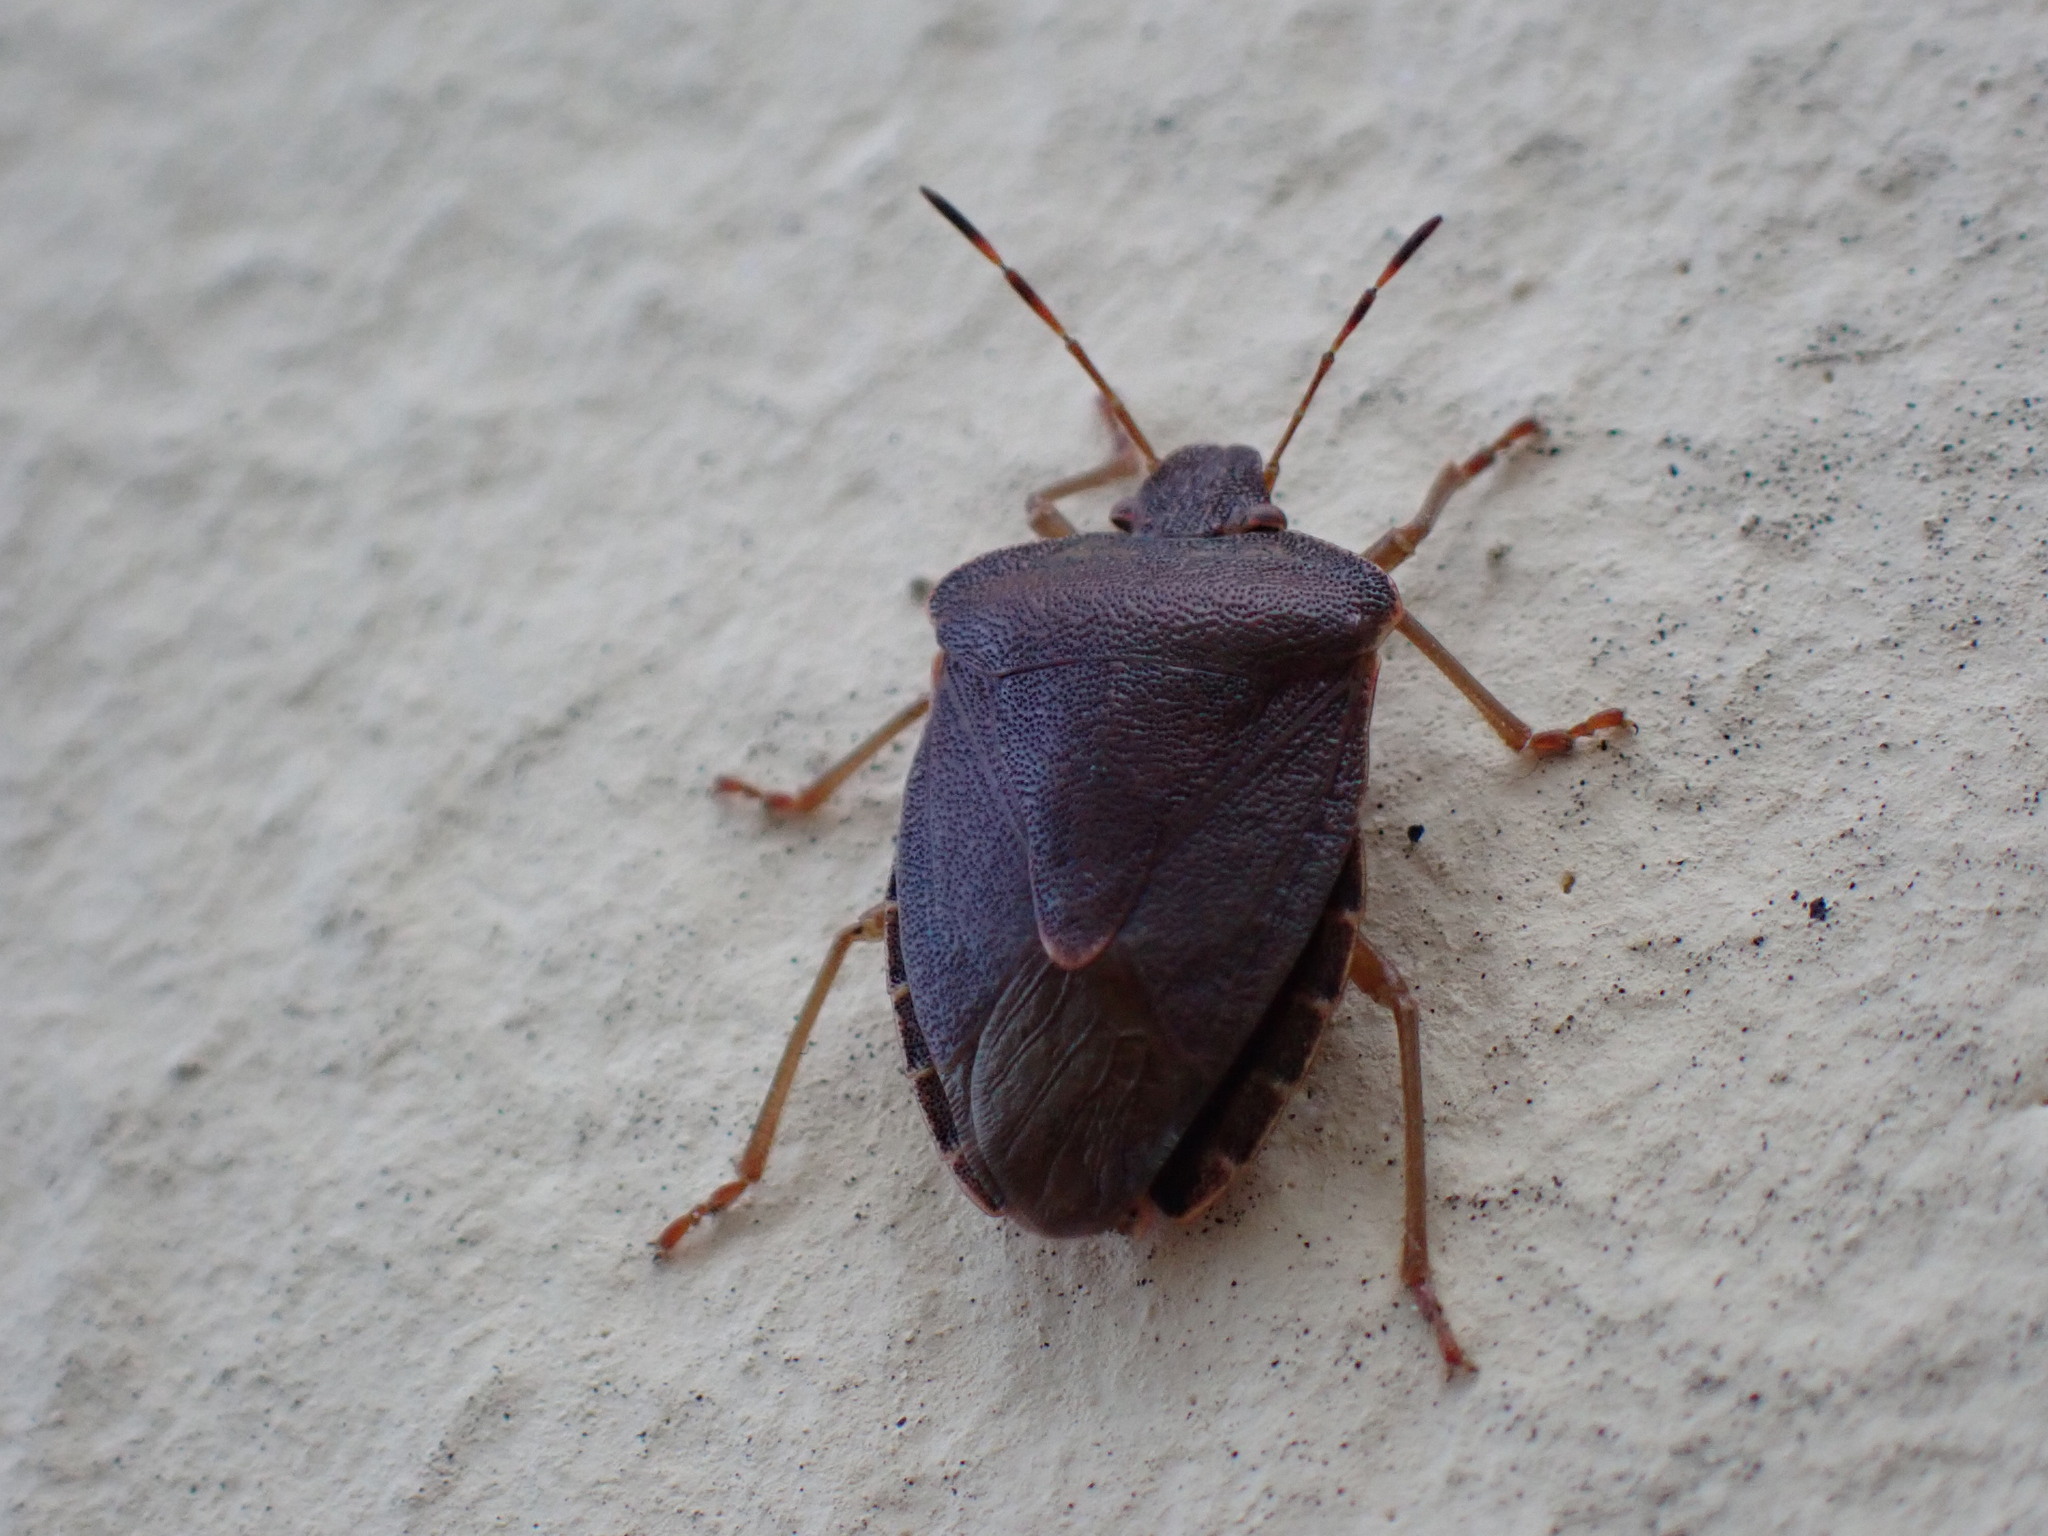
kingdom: Animalia
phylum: Arthropoda
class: Insecta
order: Hemiptera
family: Pentatomidae
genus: Palomena
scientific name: Palomena prasina
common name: Green shieldbug
